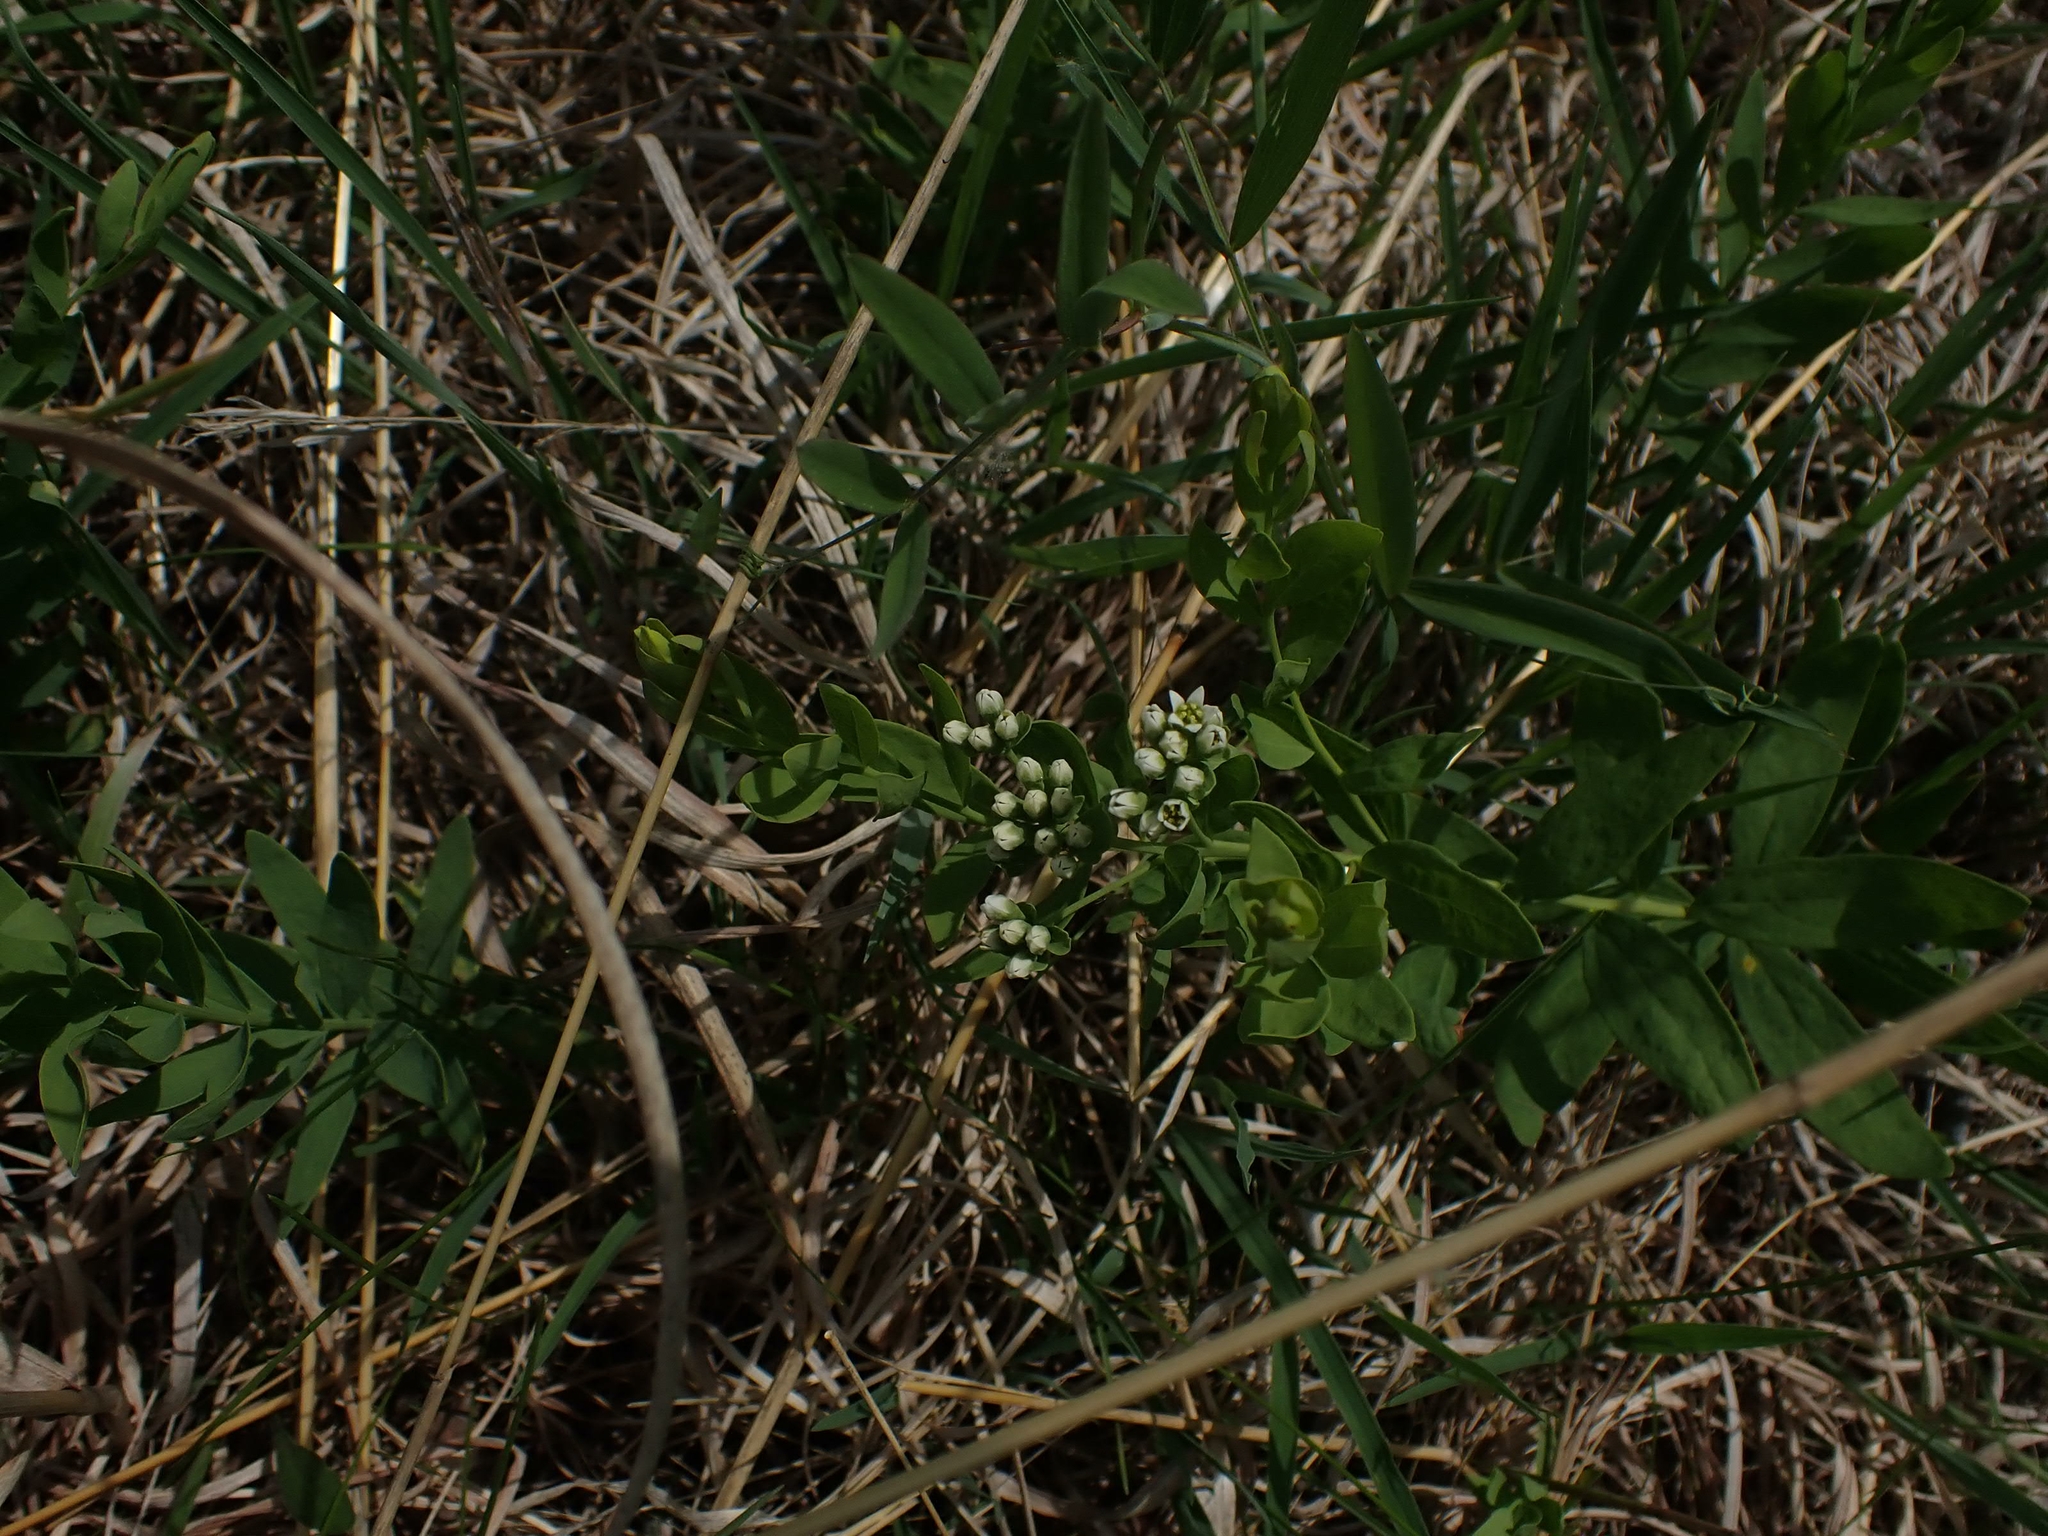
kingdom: Plantae
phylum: Tracheophyta
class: Magnoliopsida
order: Santalales
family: Comandraceae
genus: Comandra
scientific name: Comandra umbellata
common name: Bastard toadflax
